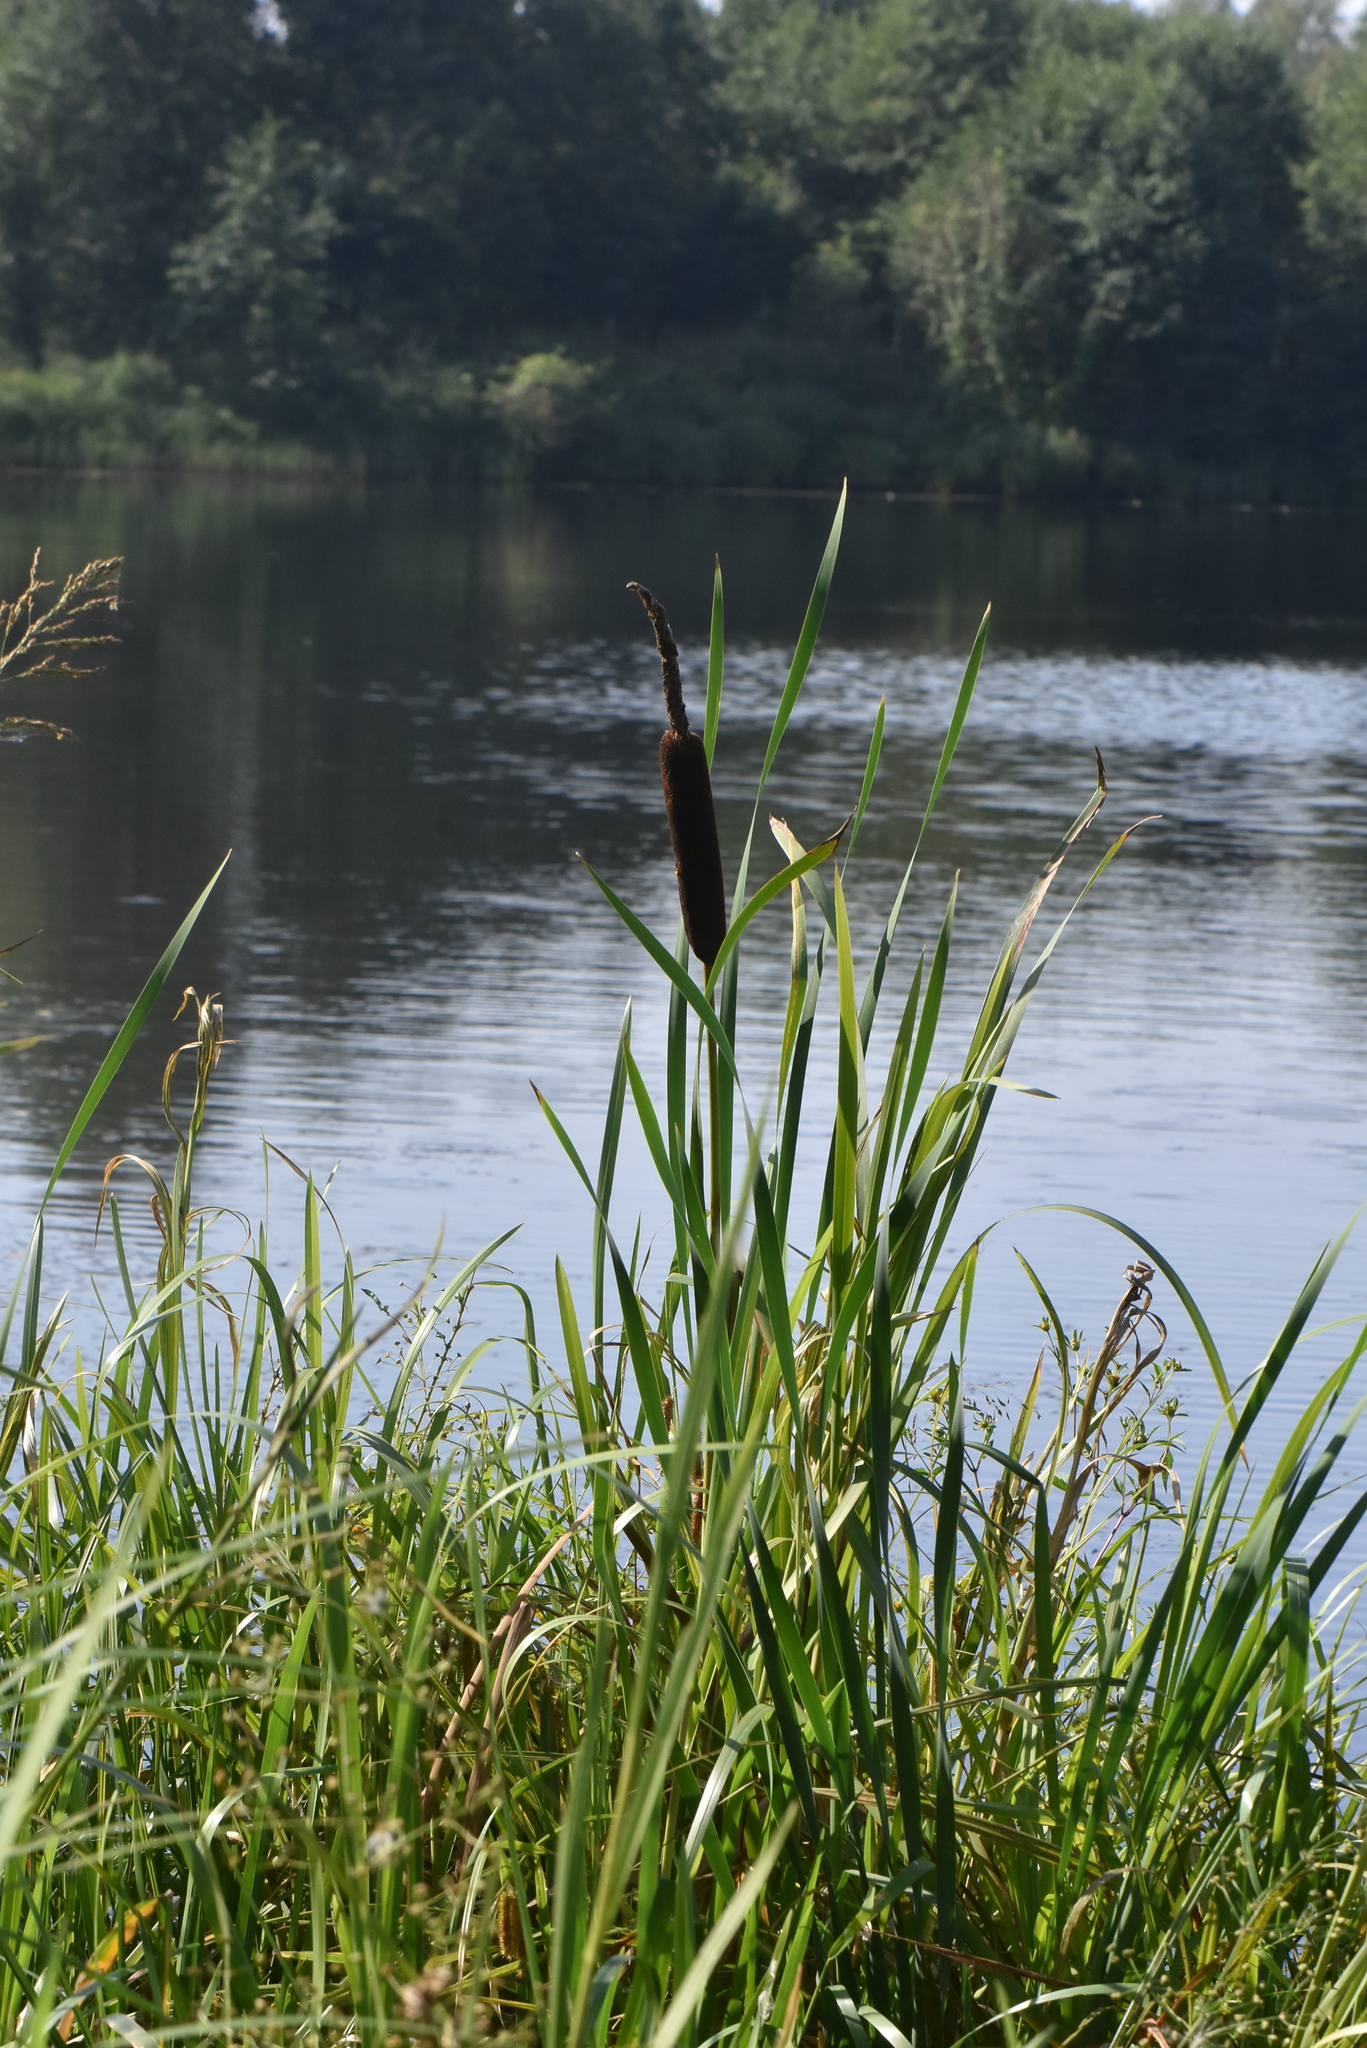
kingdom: Plantae
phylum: Tracheophyta
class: Liliopsida
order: Poales
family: Typhaceae
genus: Typha
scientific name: Typha latifolia
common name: Broadleaf cattail
